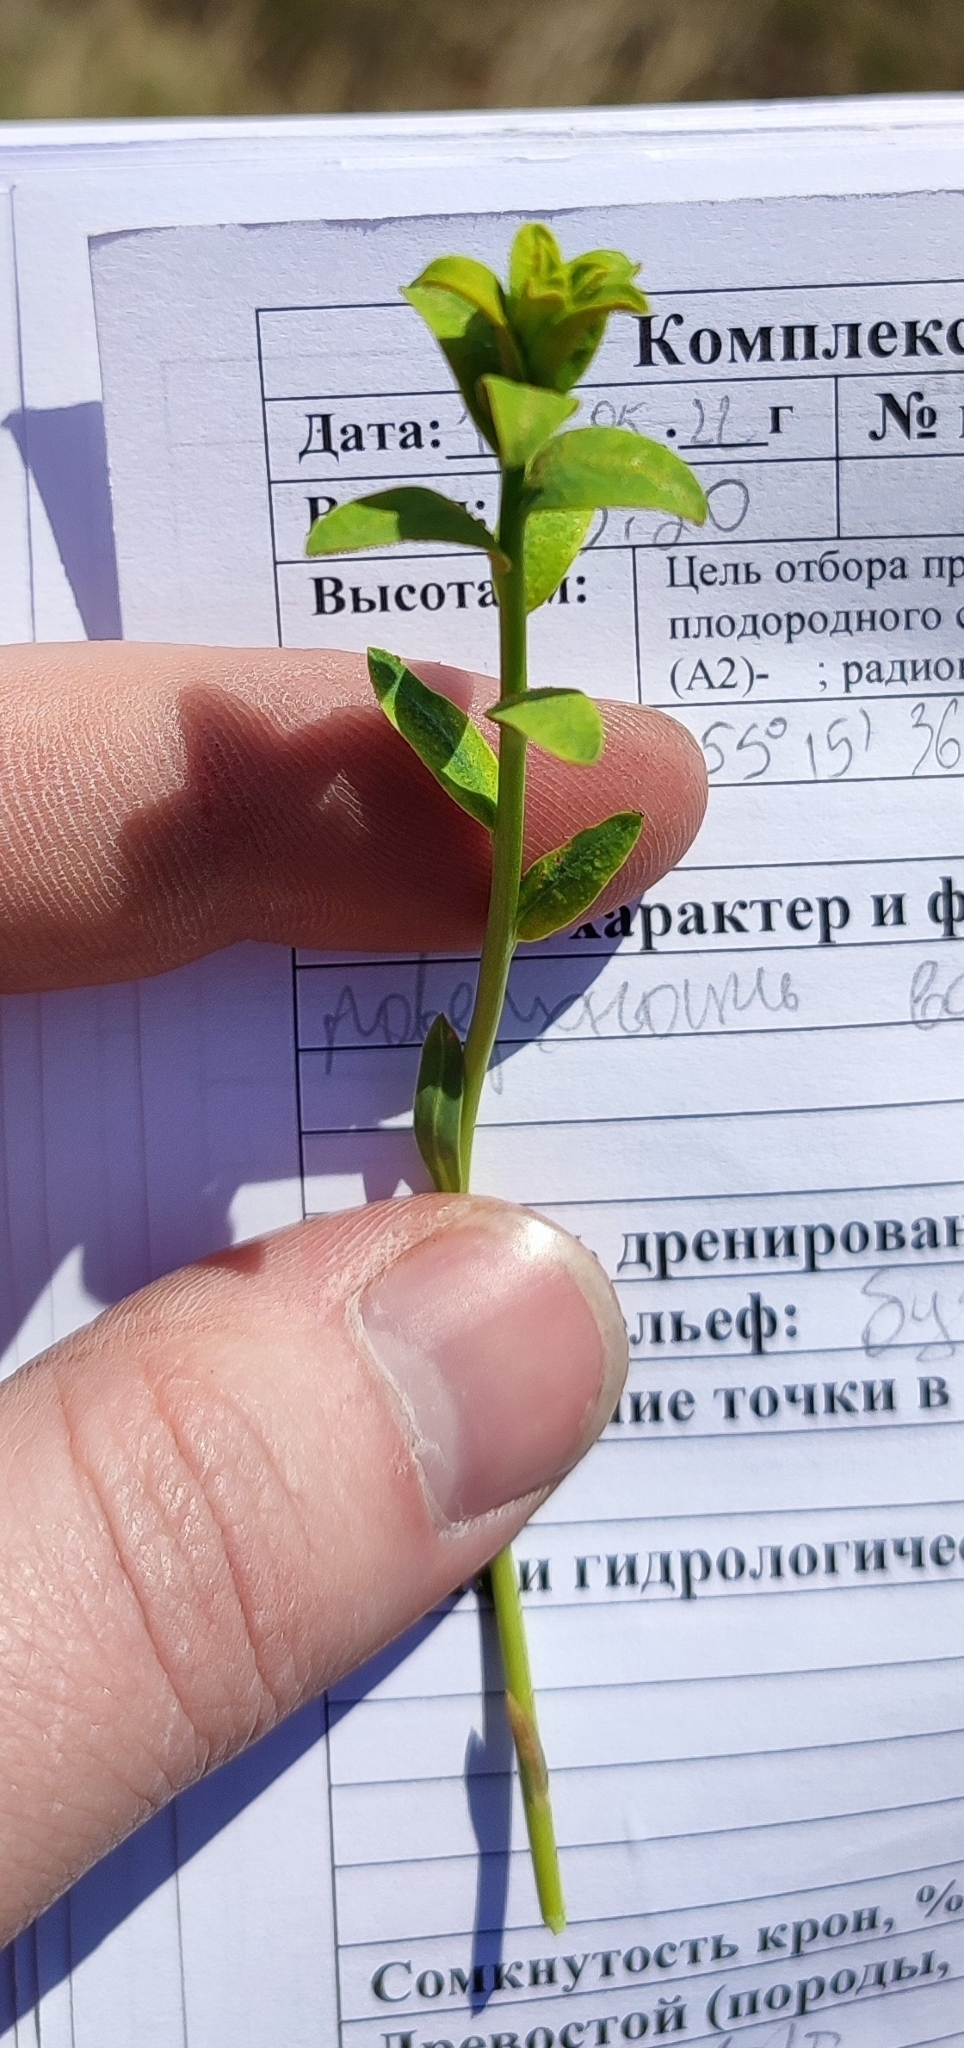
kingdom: Plantae
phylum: Tracheophyta
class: Magnoliopsida
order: Malpighiales
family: Euphorbiaceae
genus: Euphorbia
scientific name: Euphorbia virgata
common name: Leafy spurge
